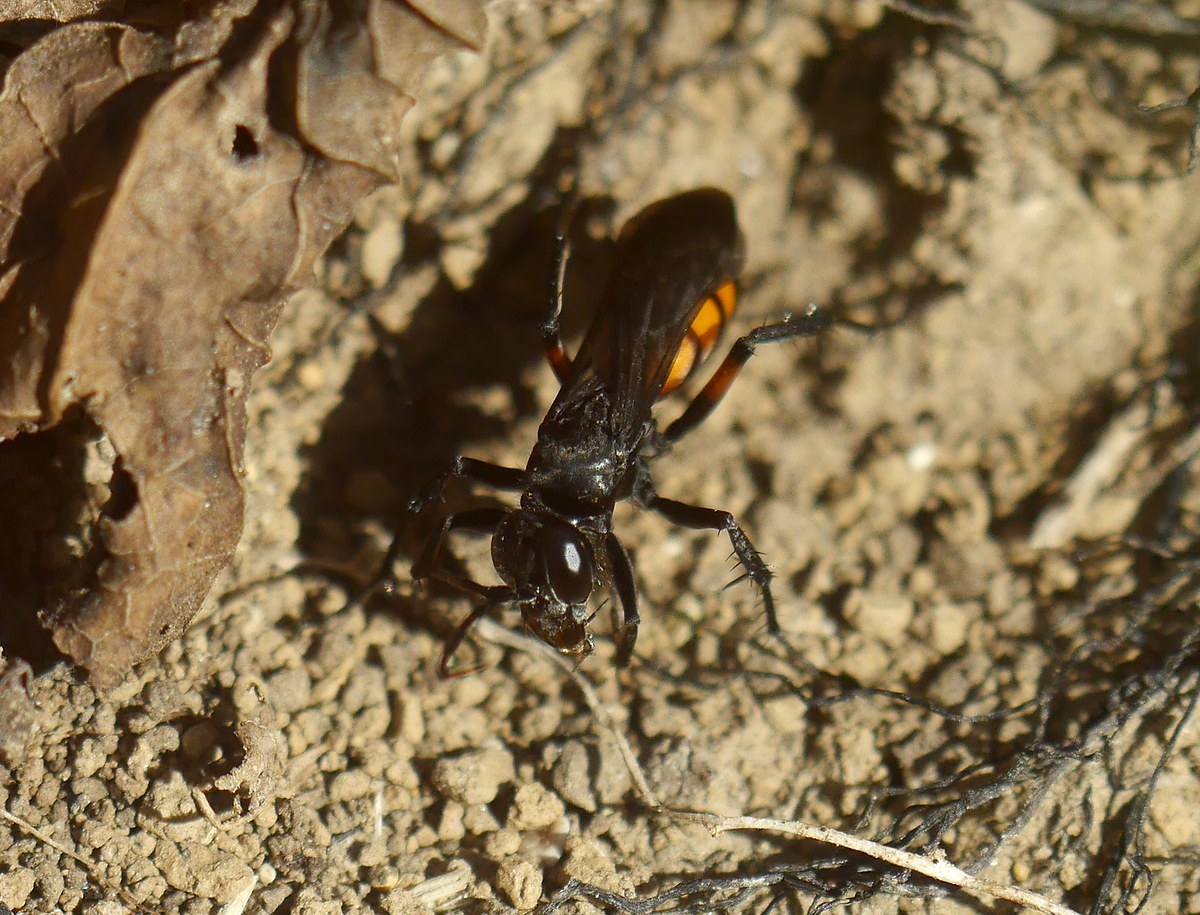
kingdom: Animalia
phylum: Arthropoda
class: Insecta
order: Hymenoptera
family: Pompilidae
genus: Anoplius
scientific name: Anoplius viaticus
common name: Black banded spider wasp
